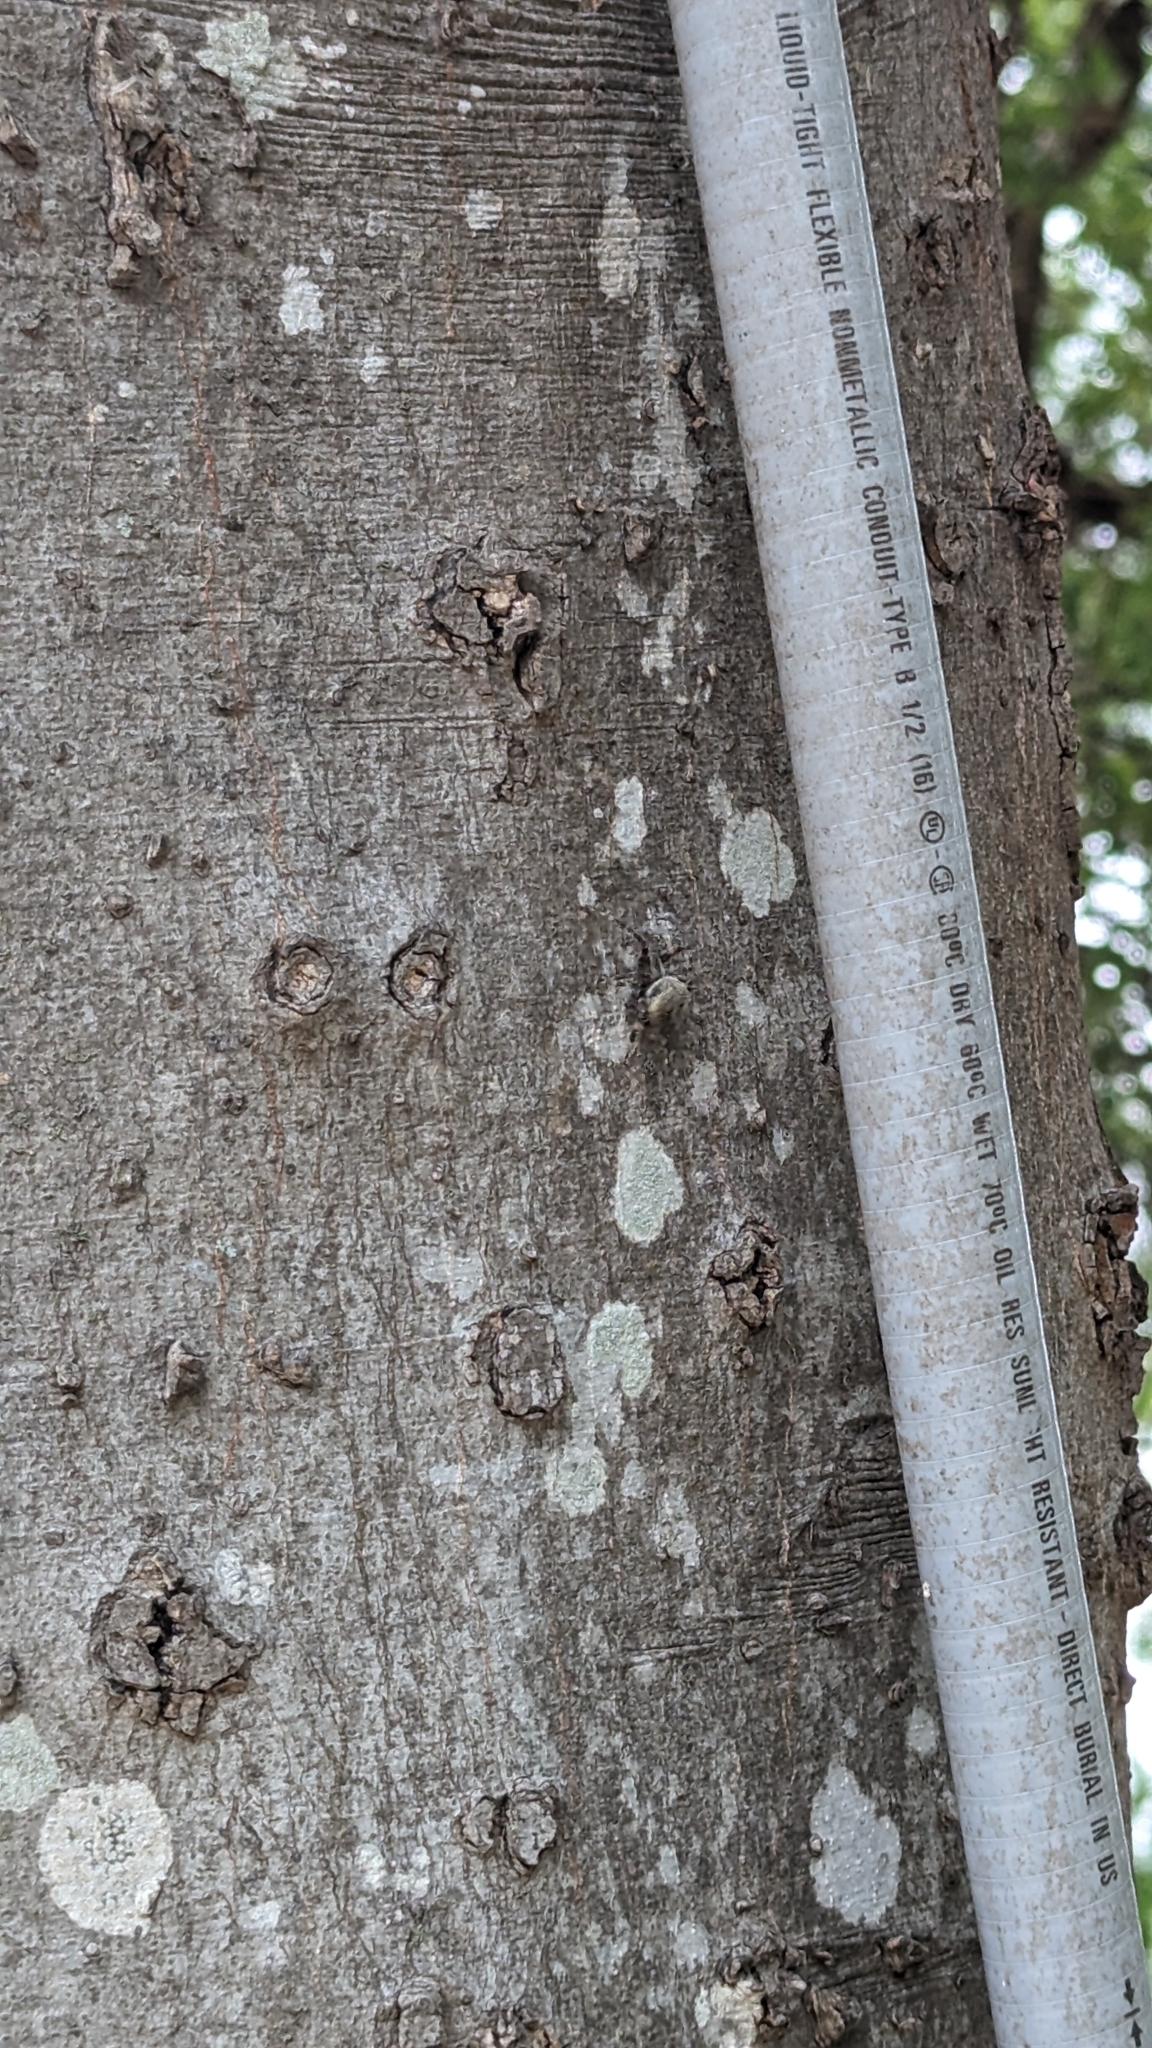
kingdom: Animalia
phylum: Arthropoda
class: Arachnida
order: Araneae
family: Araneidae
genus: Neoscona
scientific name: Neoscona crucifera
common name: Spotted orbweaver
